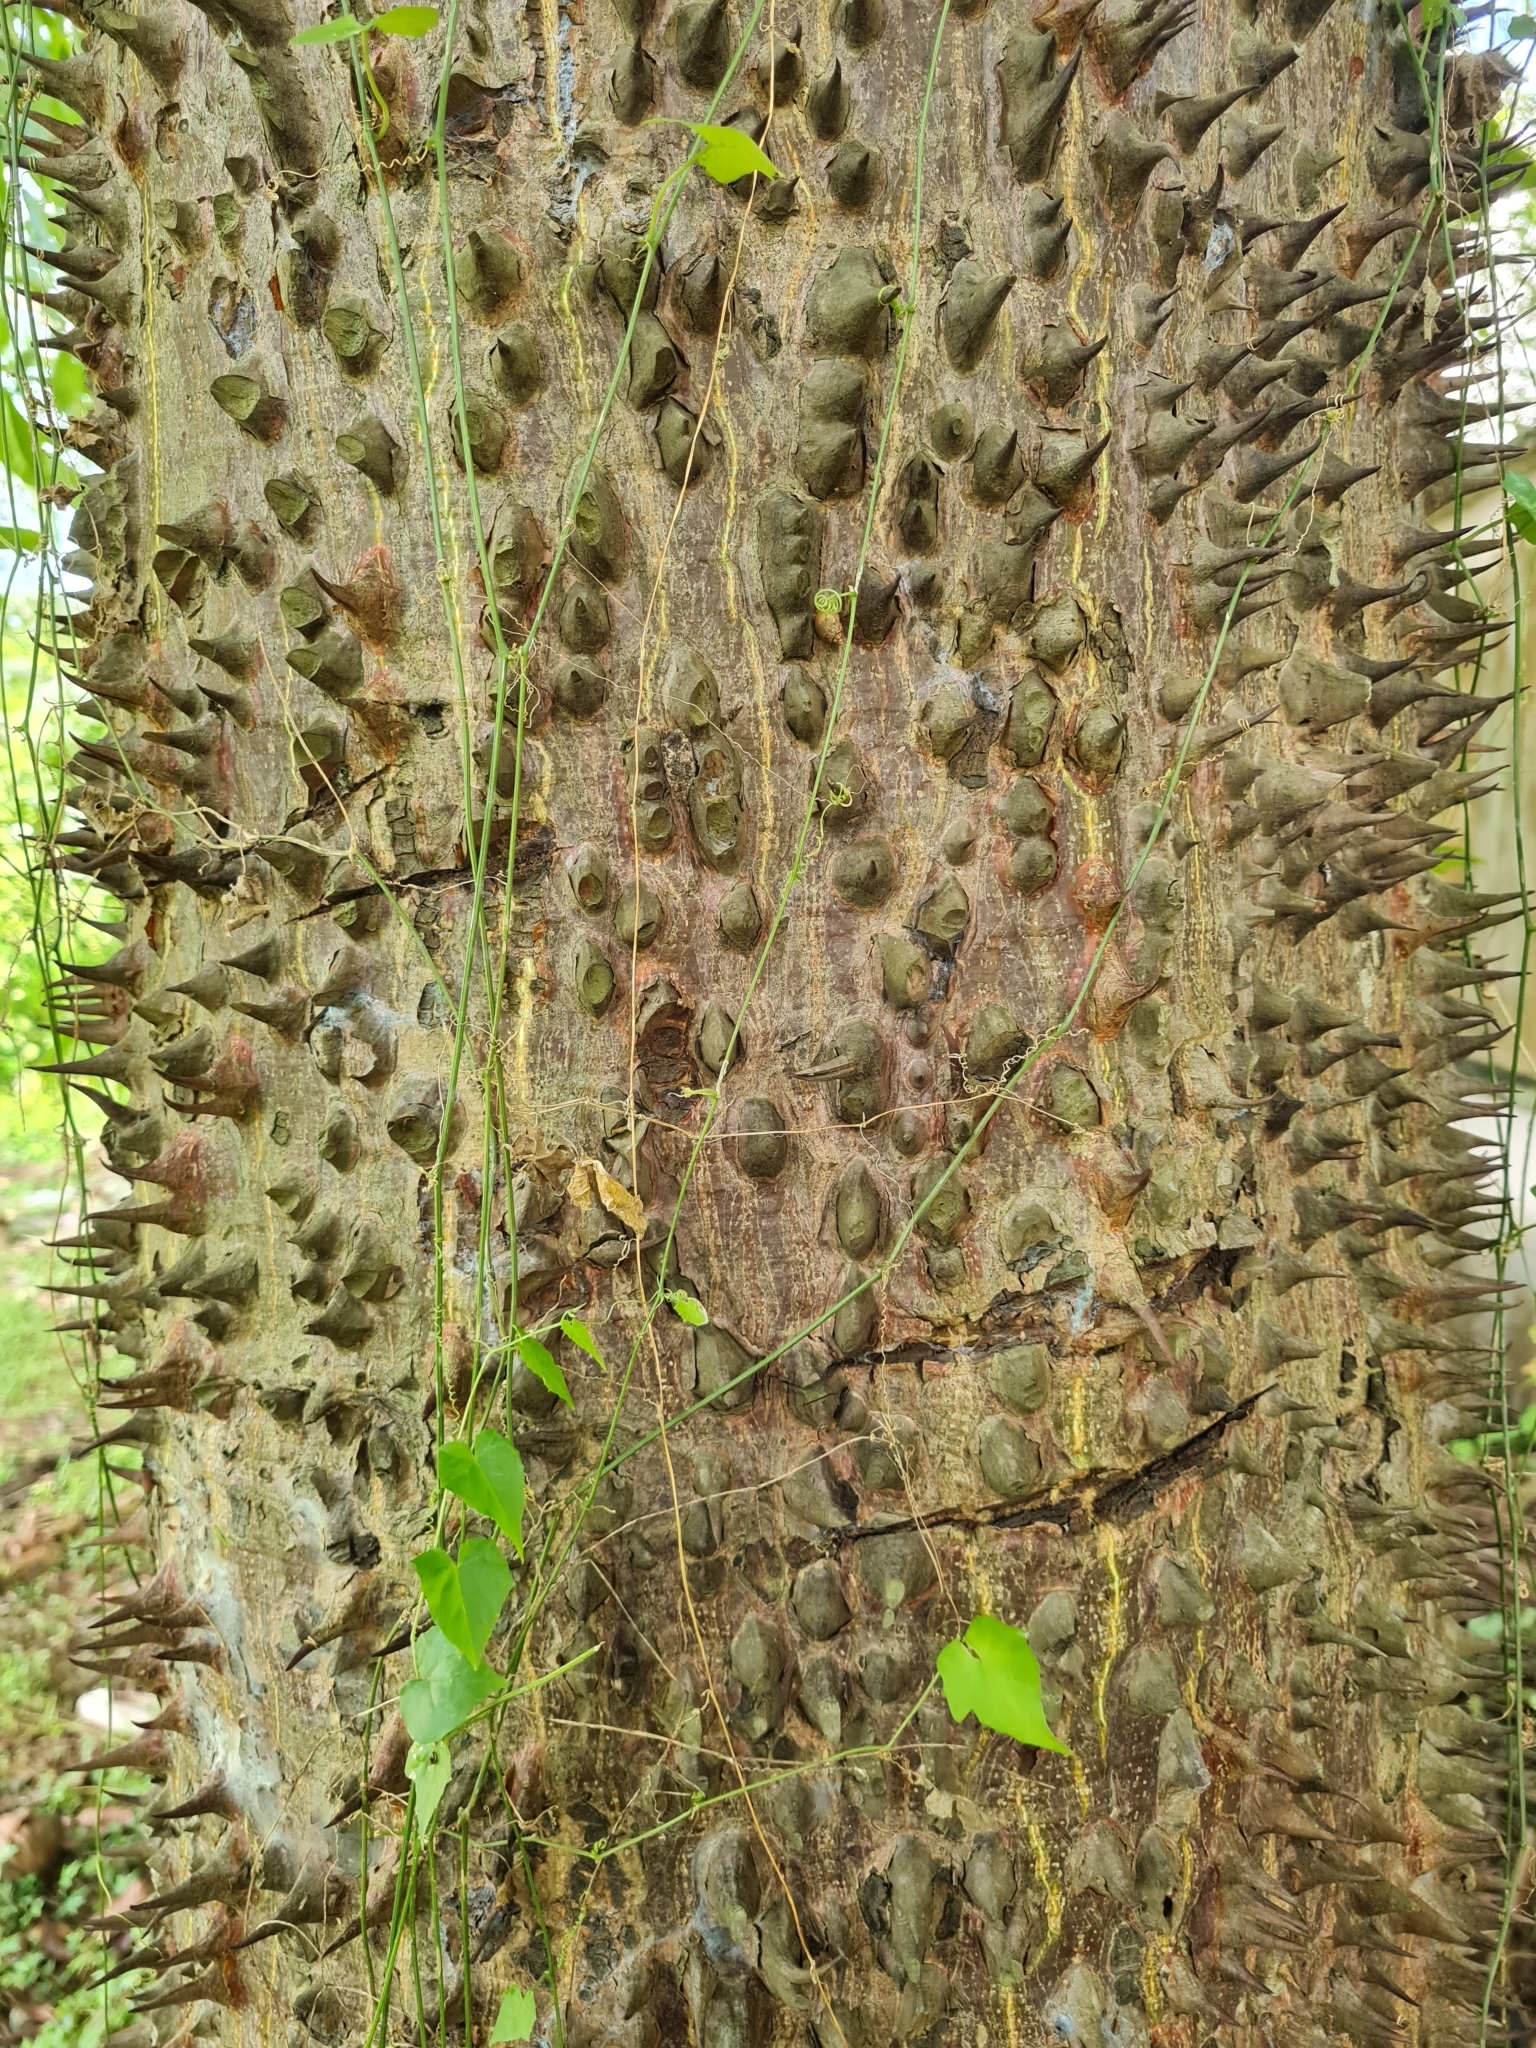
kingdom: Plantae
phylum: Tracheophyta
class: Magnoliopsida
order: Malvales
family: Malvaceae
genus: Ceiba
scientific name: Ceiba pentandra
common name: Kapok
